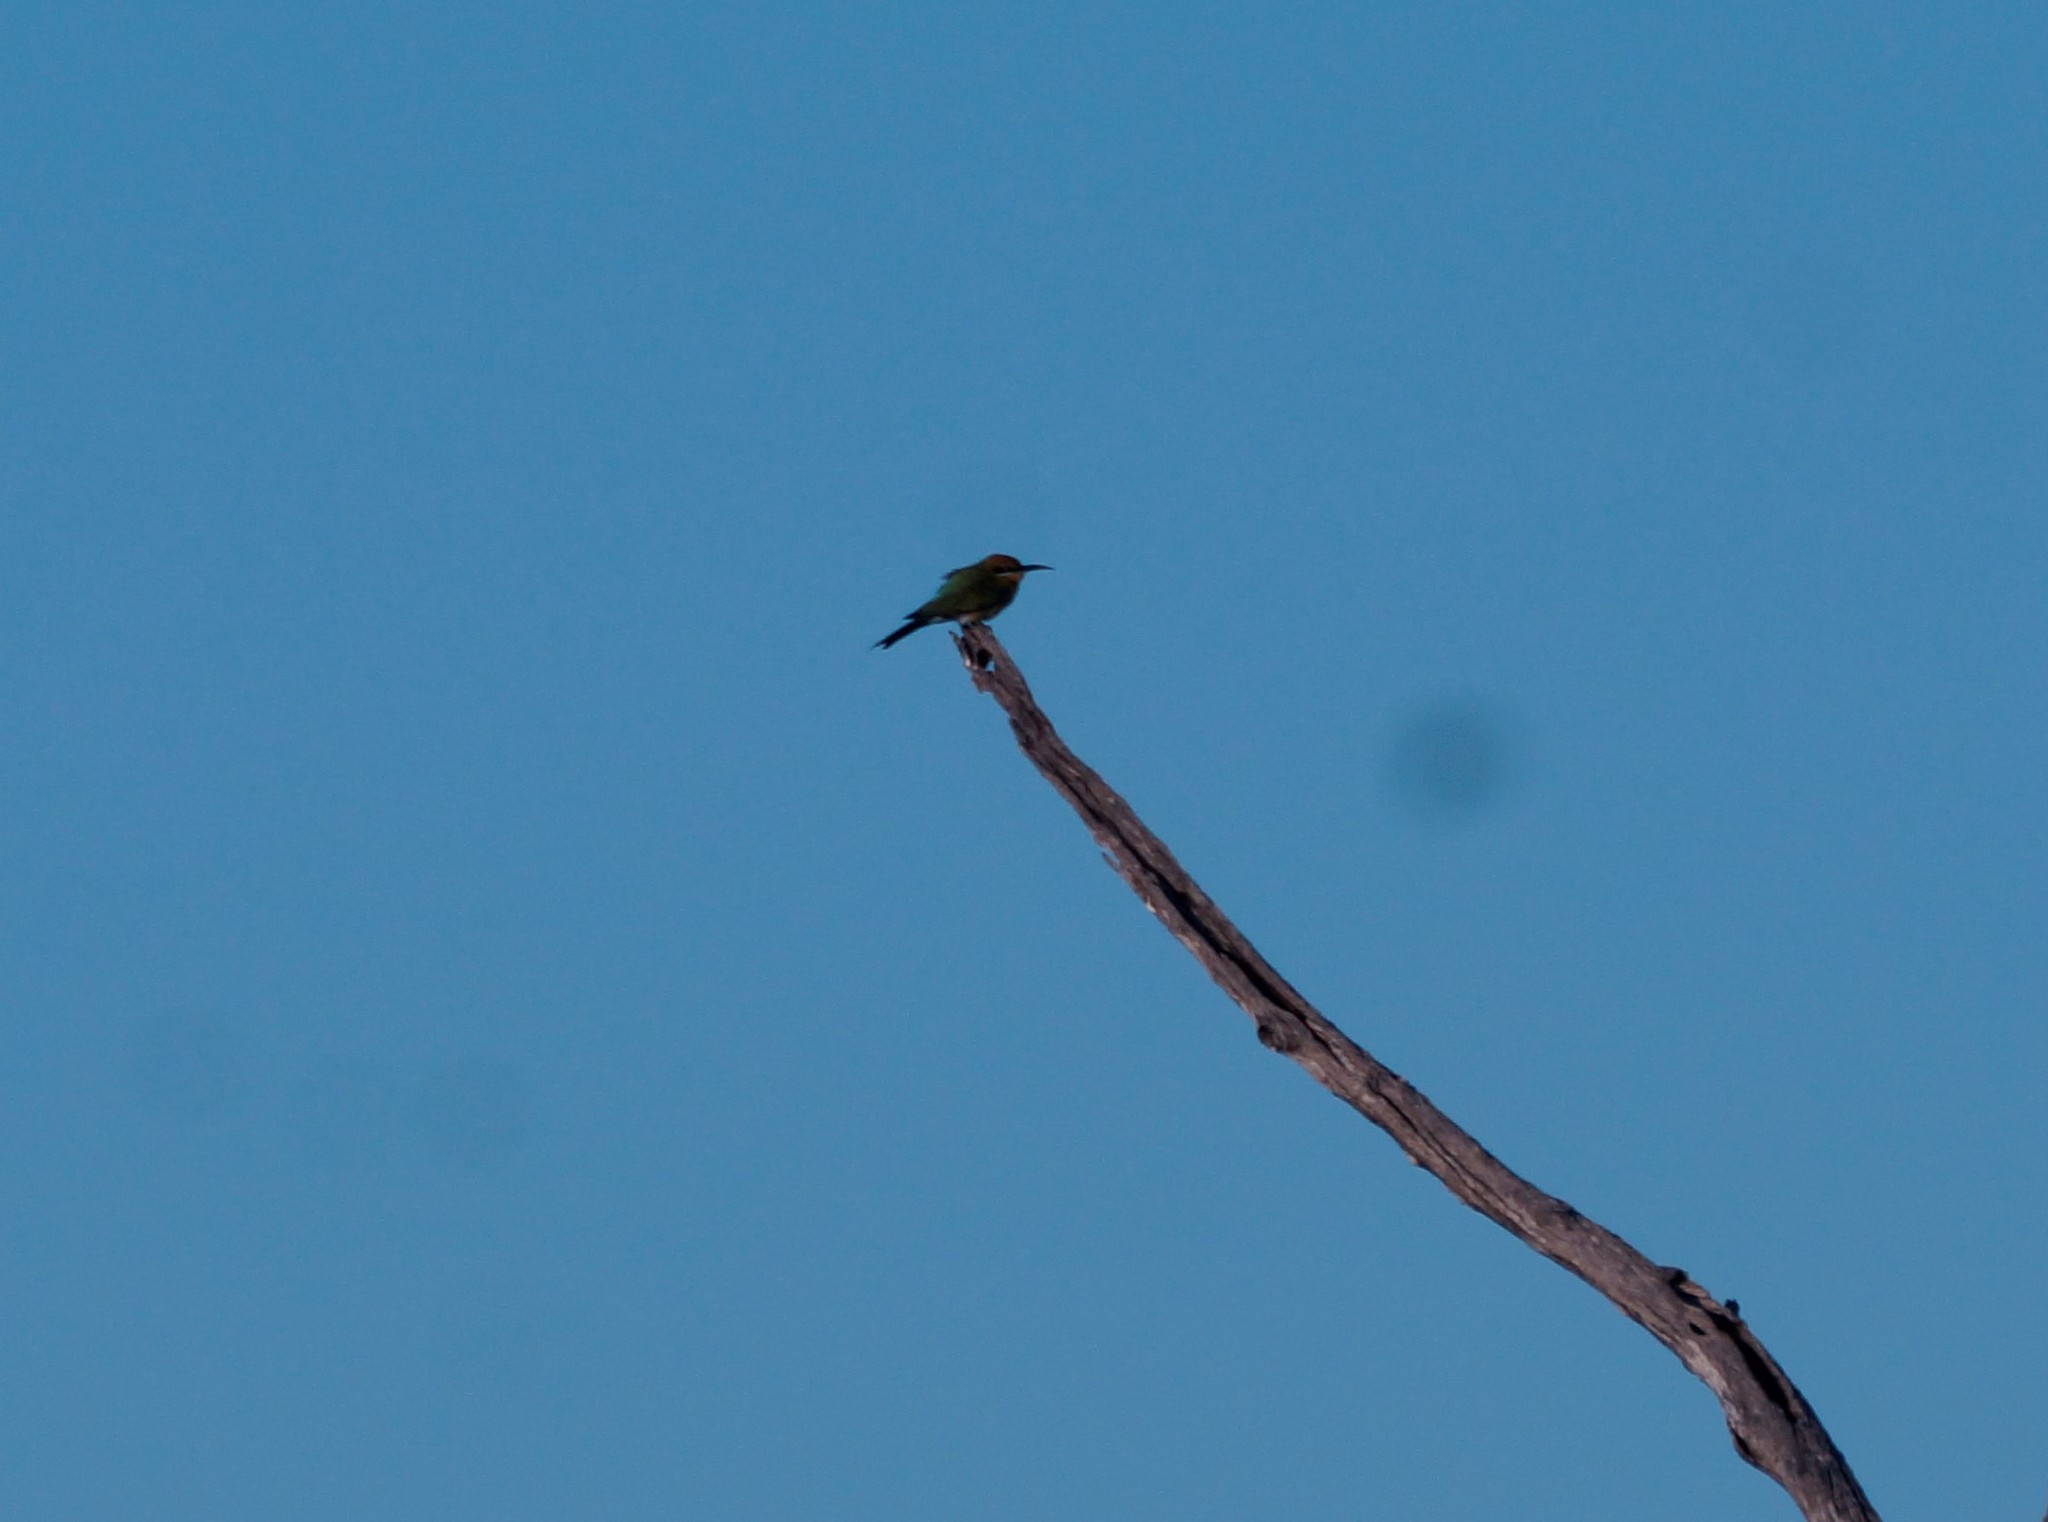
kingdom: Animalia
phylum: Chordata
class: Aves
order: Coraciiformes
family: Meropidae
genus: Merops
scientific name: Merops ornatus
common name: Rainbow bee-eater
